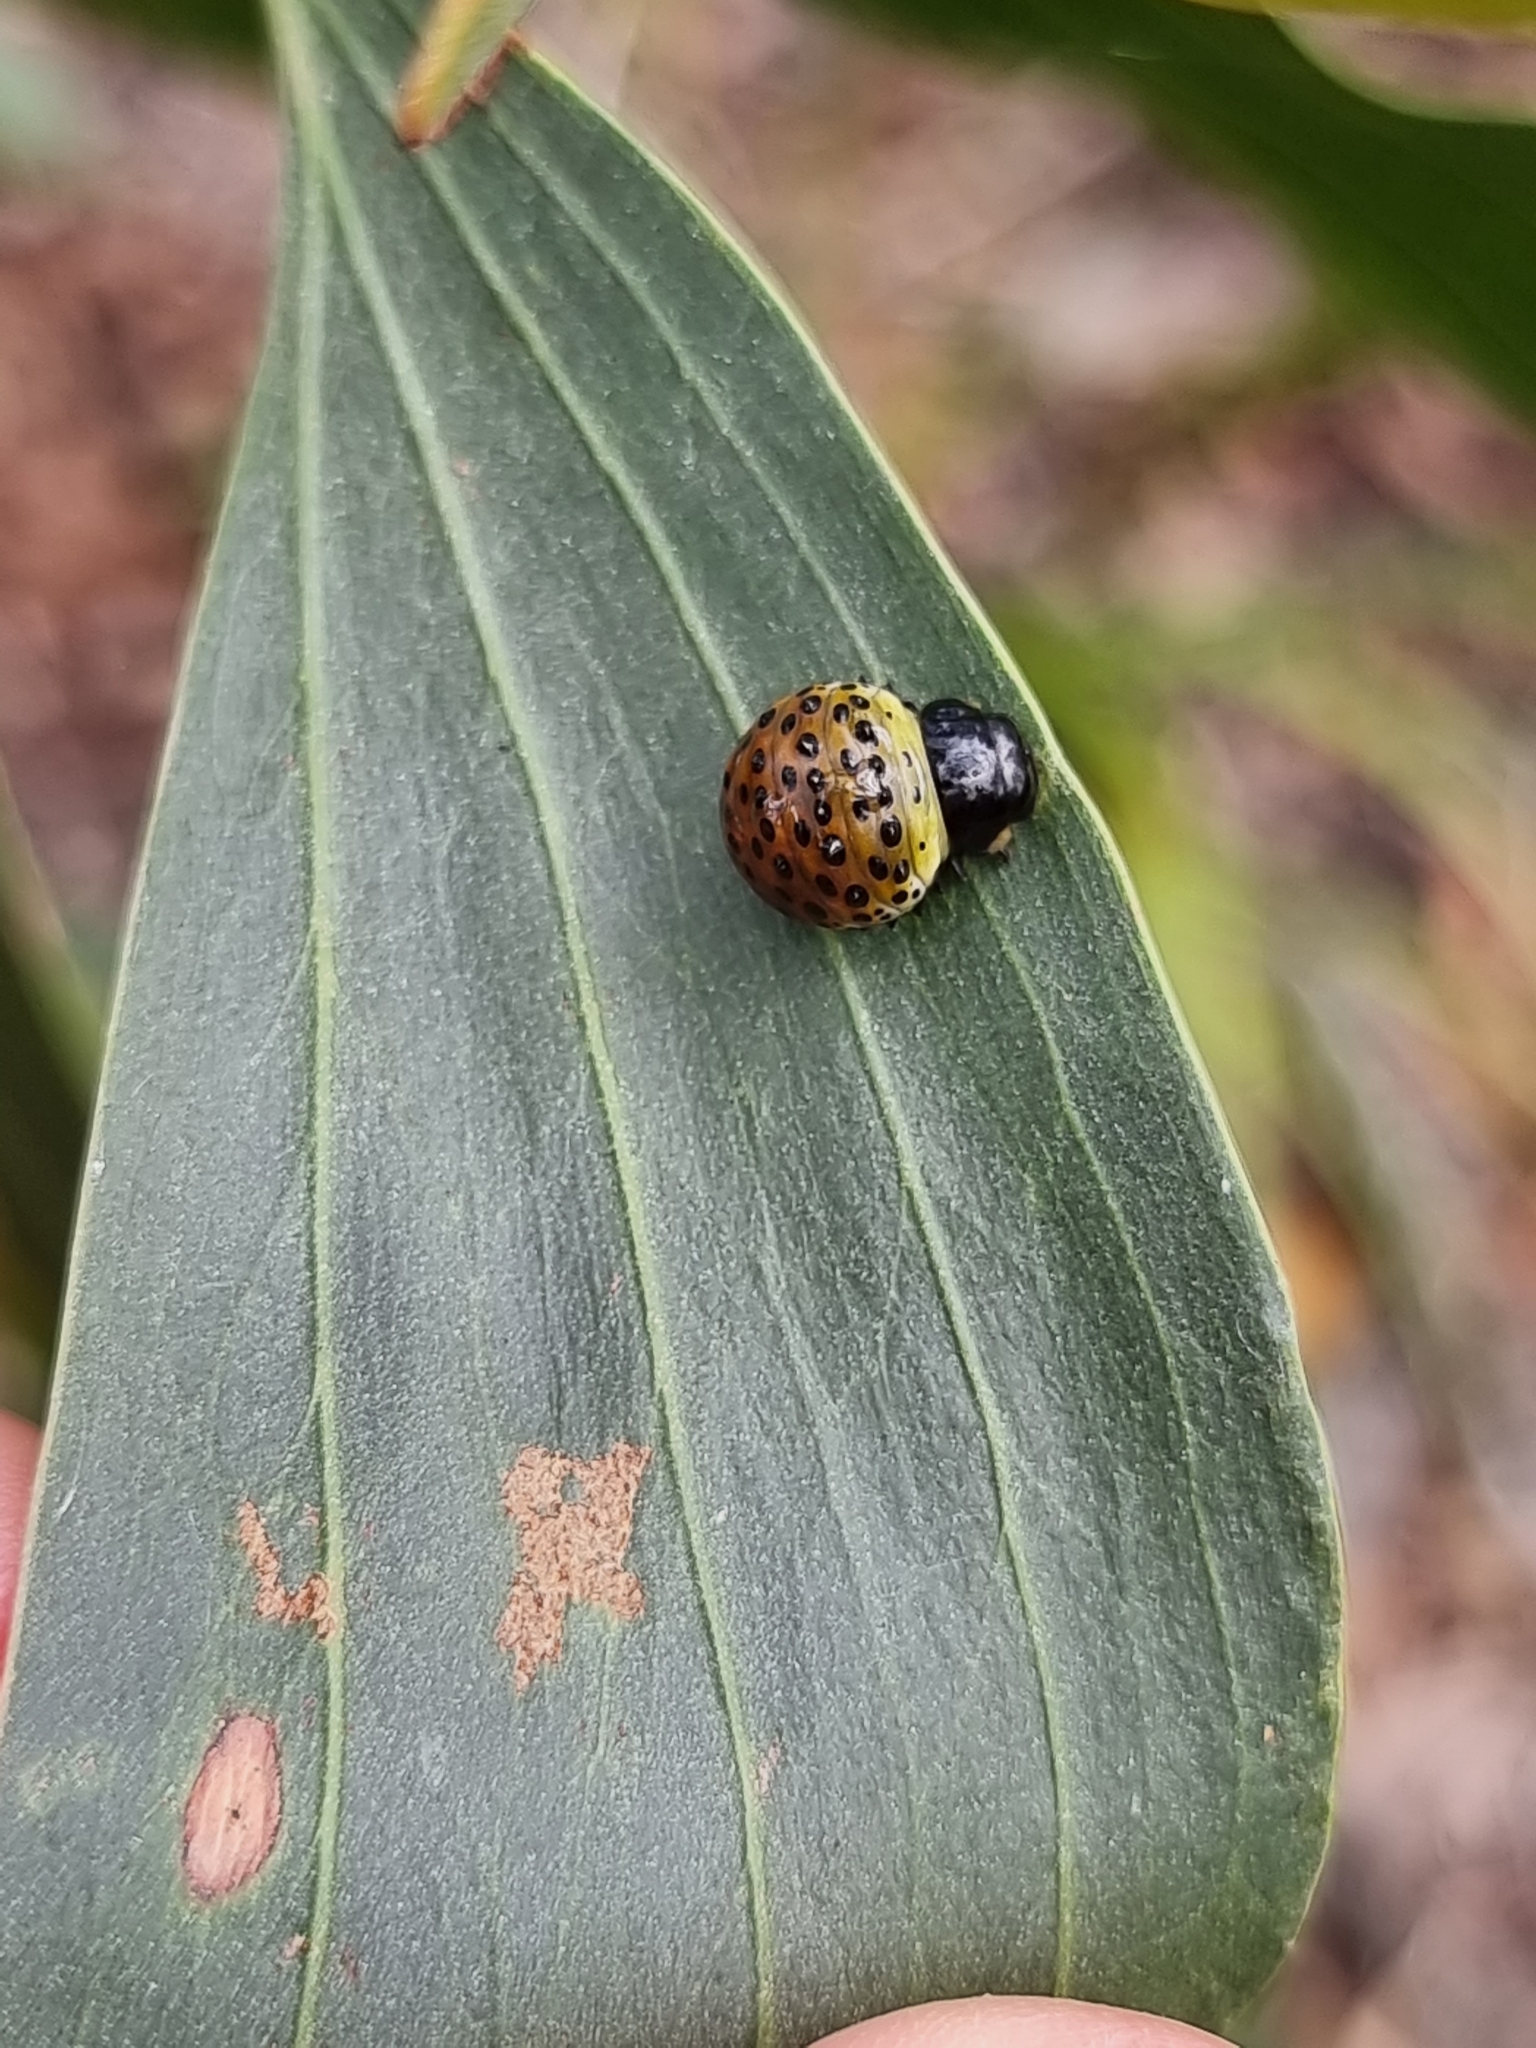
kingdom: Animalia
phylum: Arthropoda
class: Insecta
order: Coleoptera
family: Chrysomelidae
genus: Dicranosterna
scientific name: Dicranosterna
